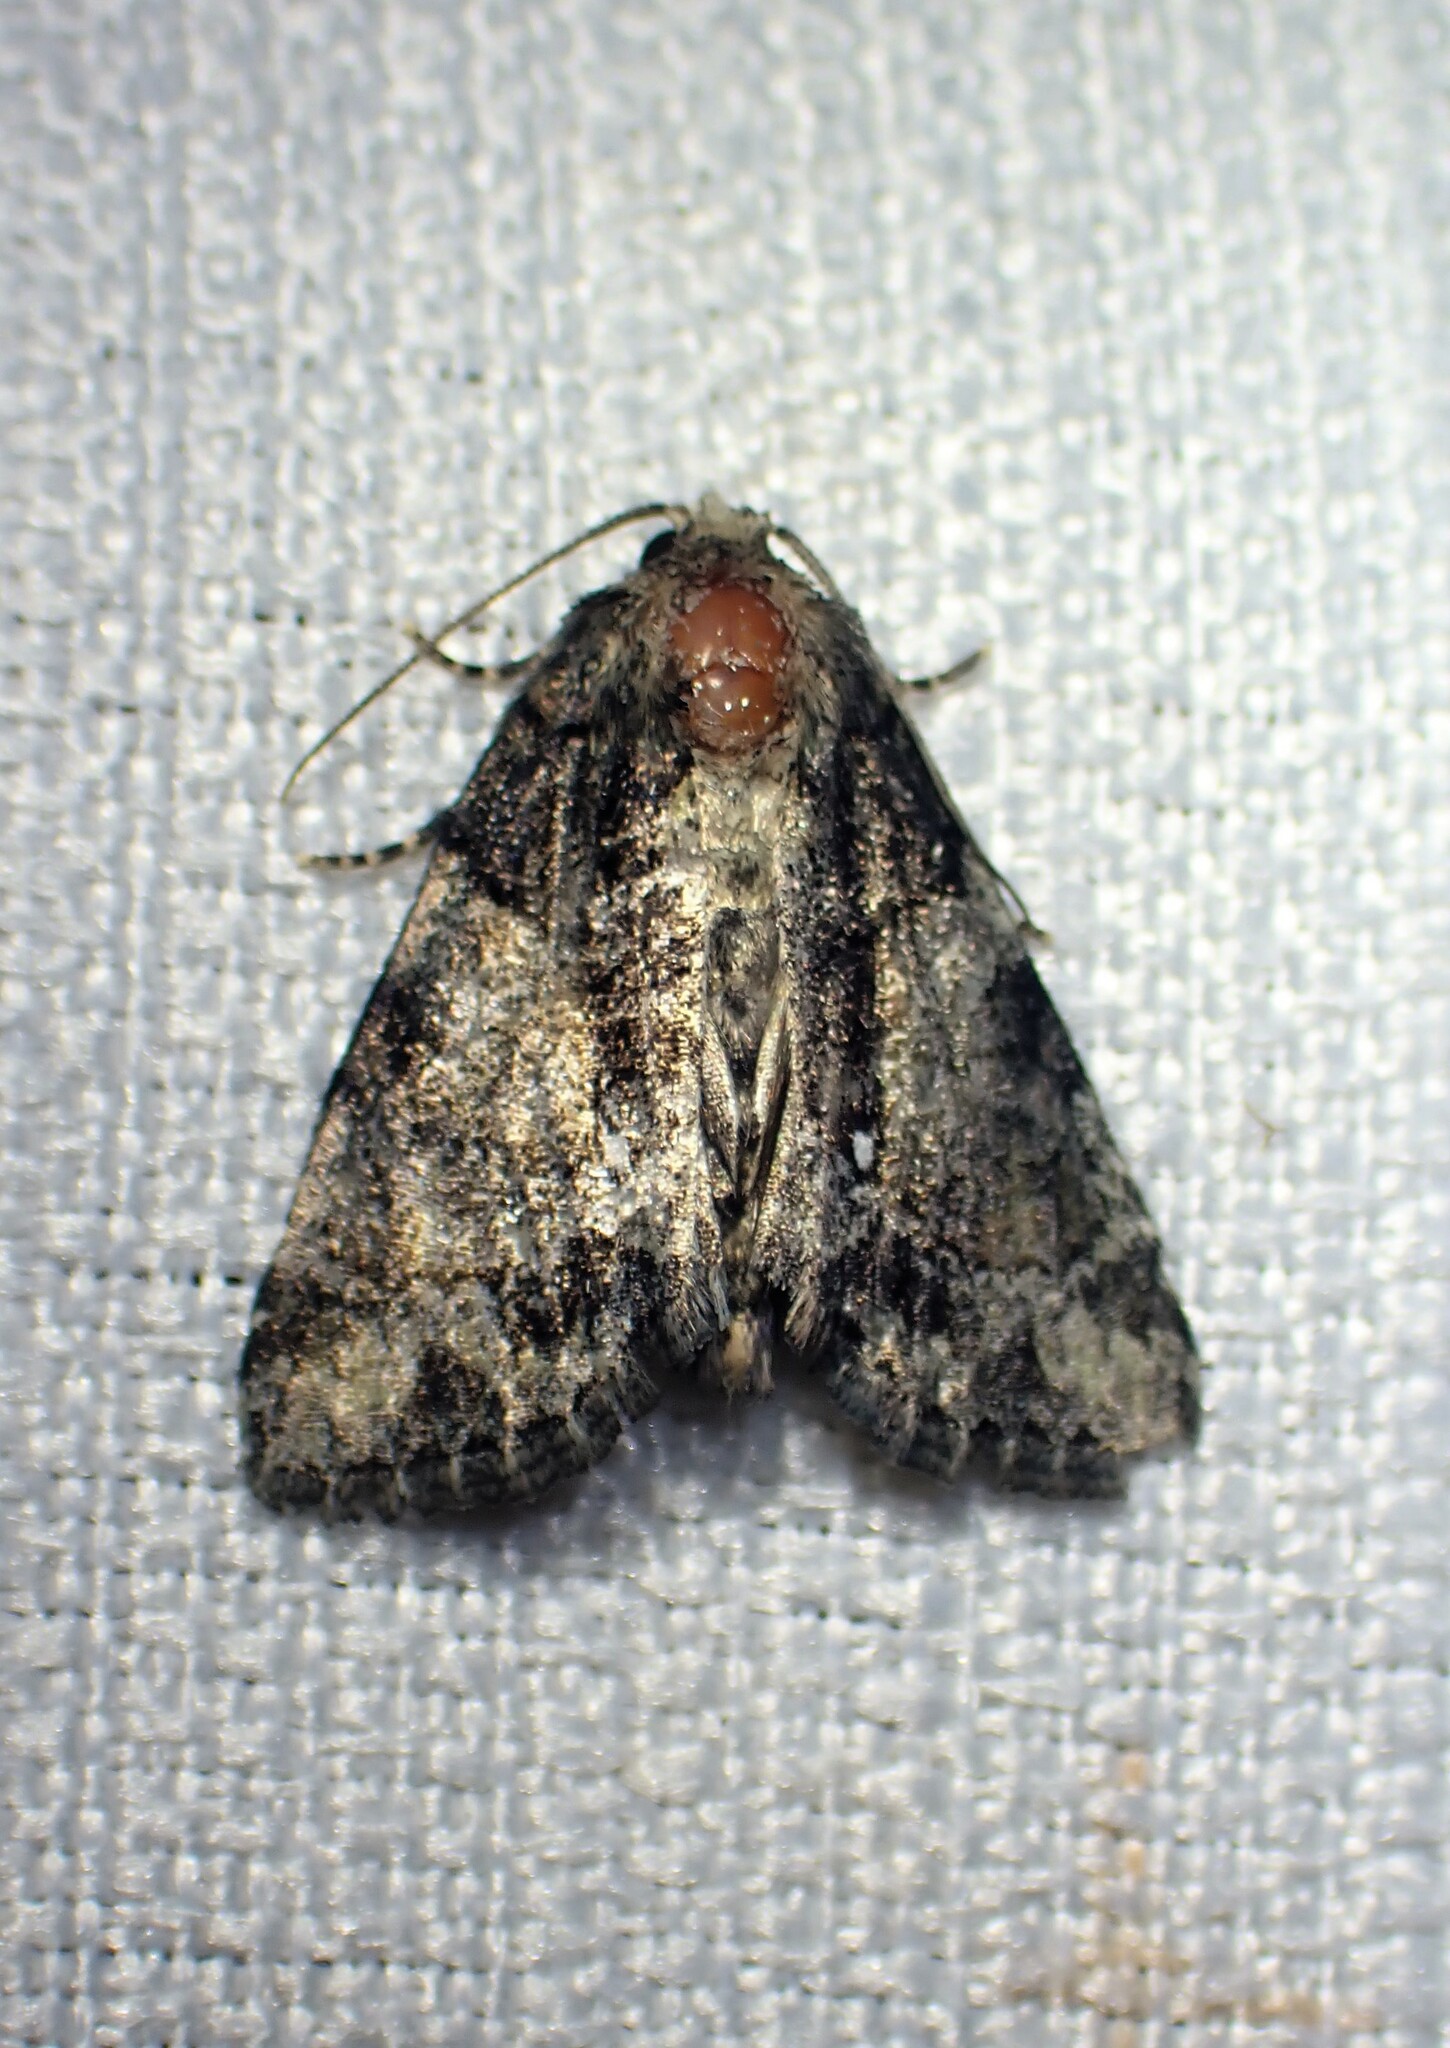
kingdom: Animalia
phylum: Arthropoda
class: Insecta
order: Lepidoptera
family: Noctuidae
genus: Chytonix
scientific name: Chytonix palliatricula
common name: Cloaked marvel
